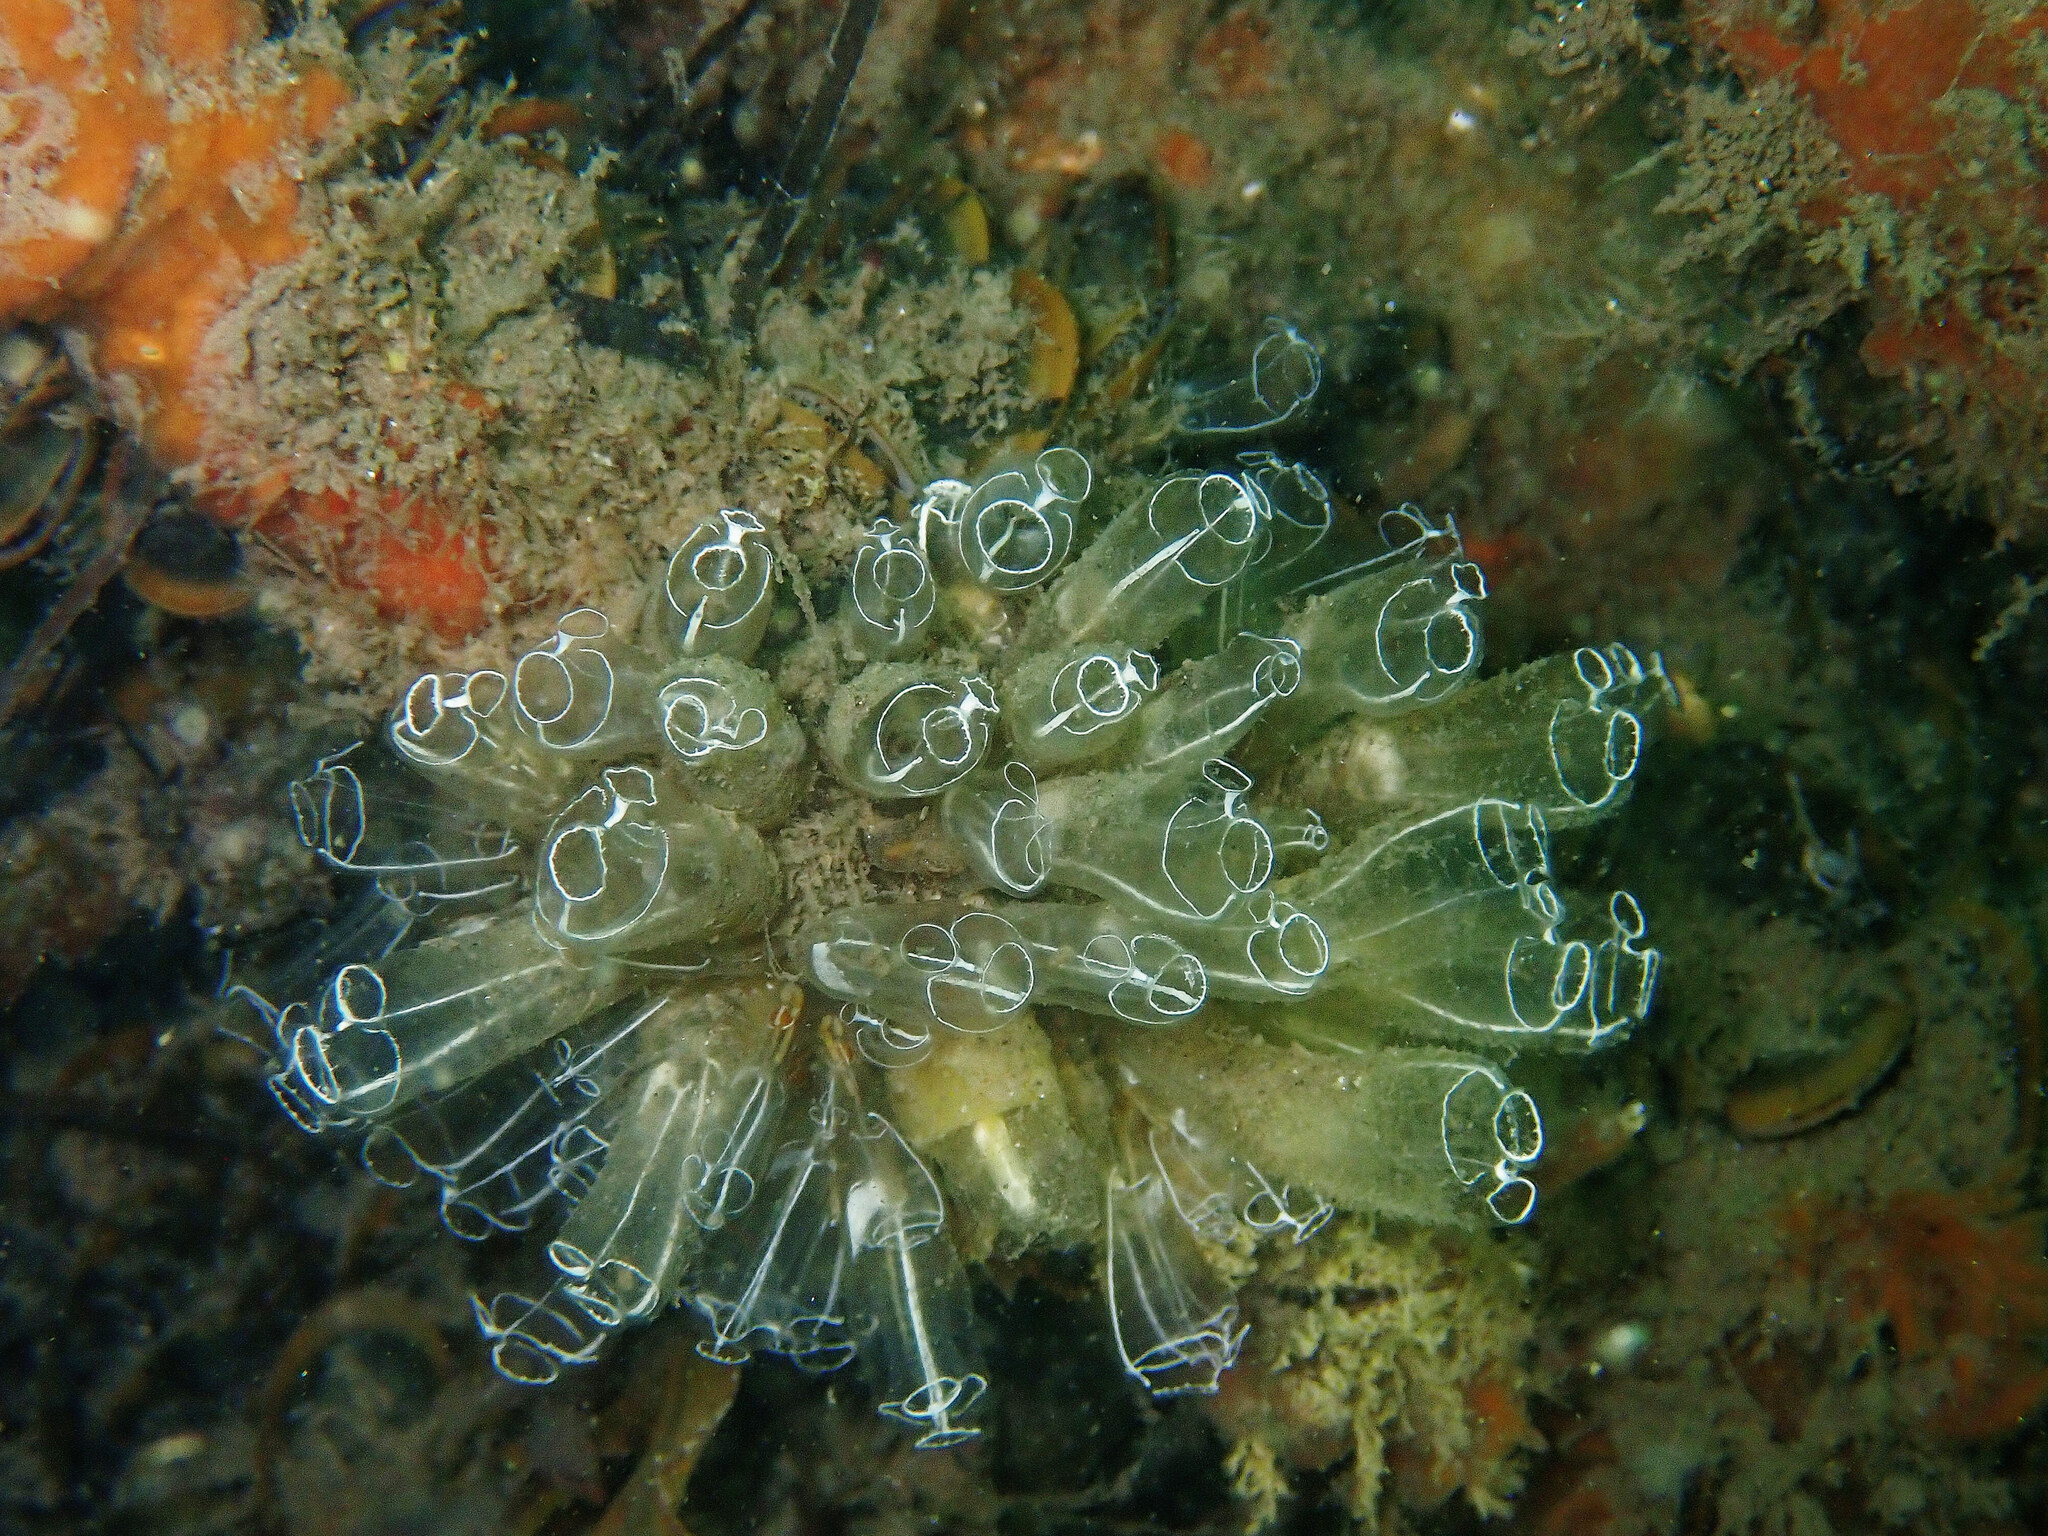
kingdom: Animalia
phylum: Chordata
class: Ascidiacea
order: Aplousobranchia
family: Clavelinidae
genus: Clavelina
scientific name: Clavelina lepadiformis
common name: Light bulb tunicate
